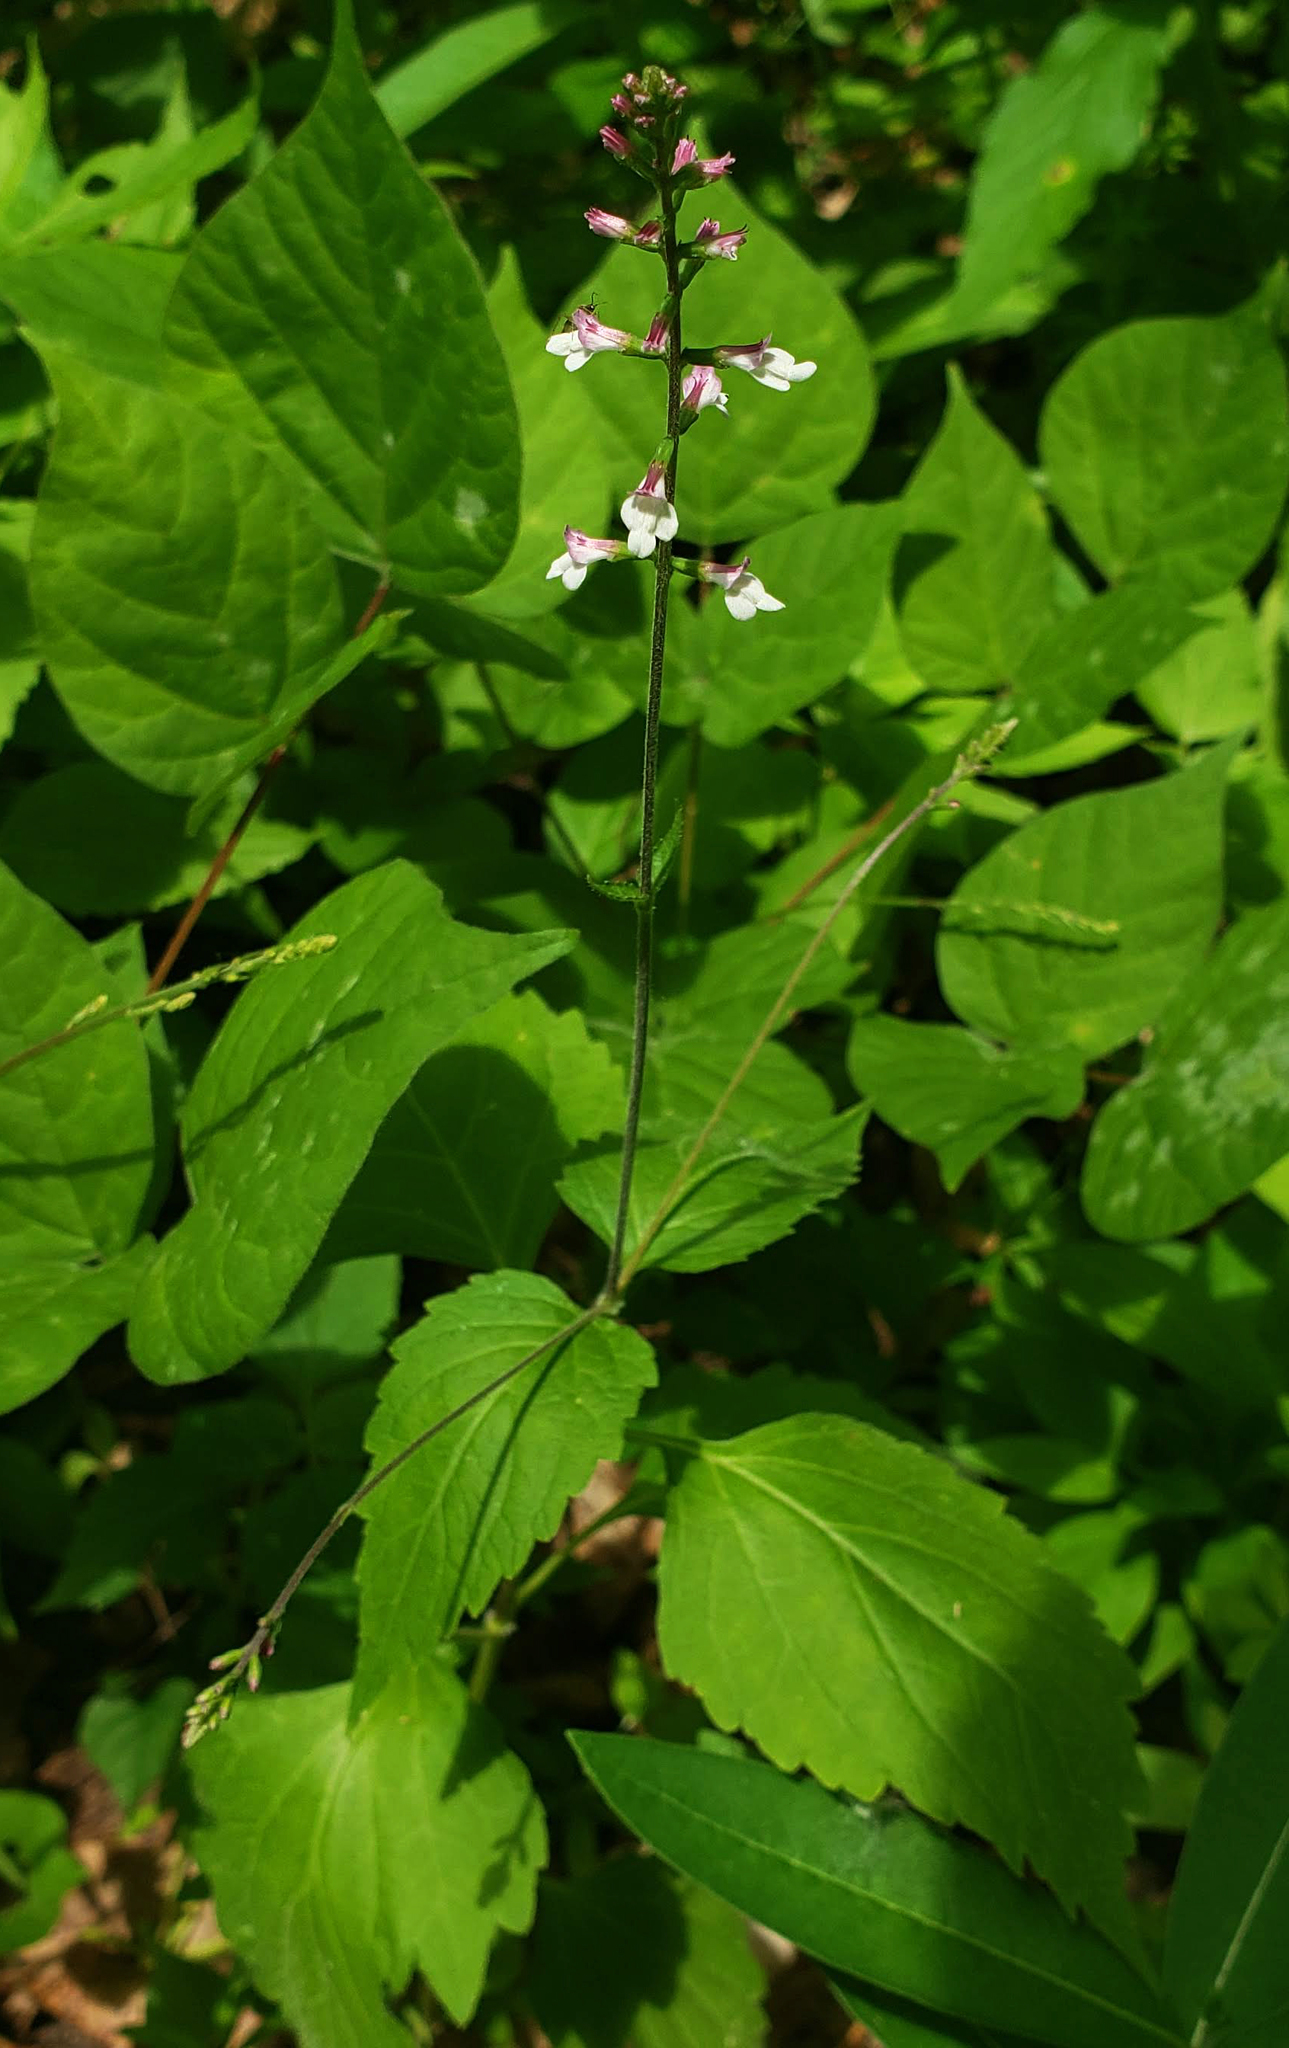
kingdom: Plantae
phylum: Tracheophyta
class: Magnoliopsida
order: Lamiales
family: Phrymaceae
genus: Phryma
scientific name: Phryma leptostachya
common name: American lopseed
